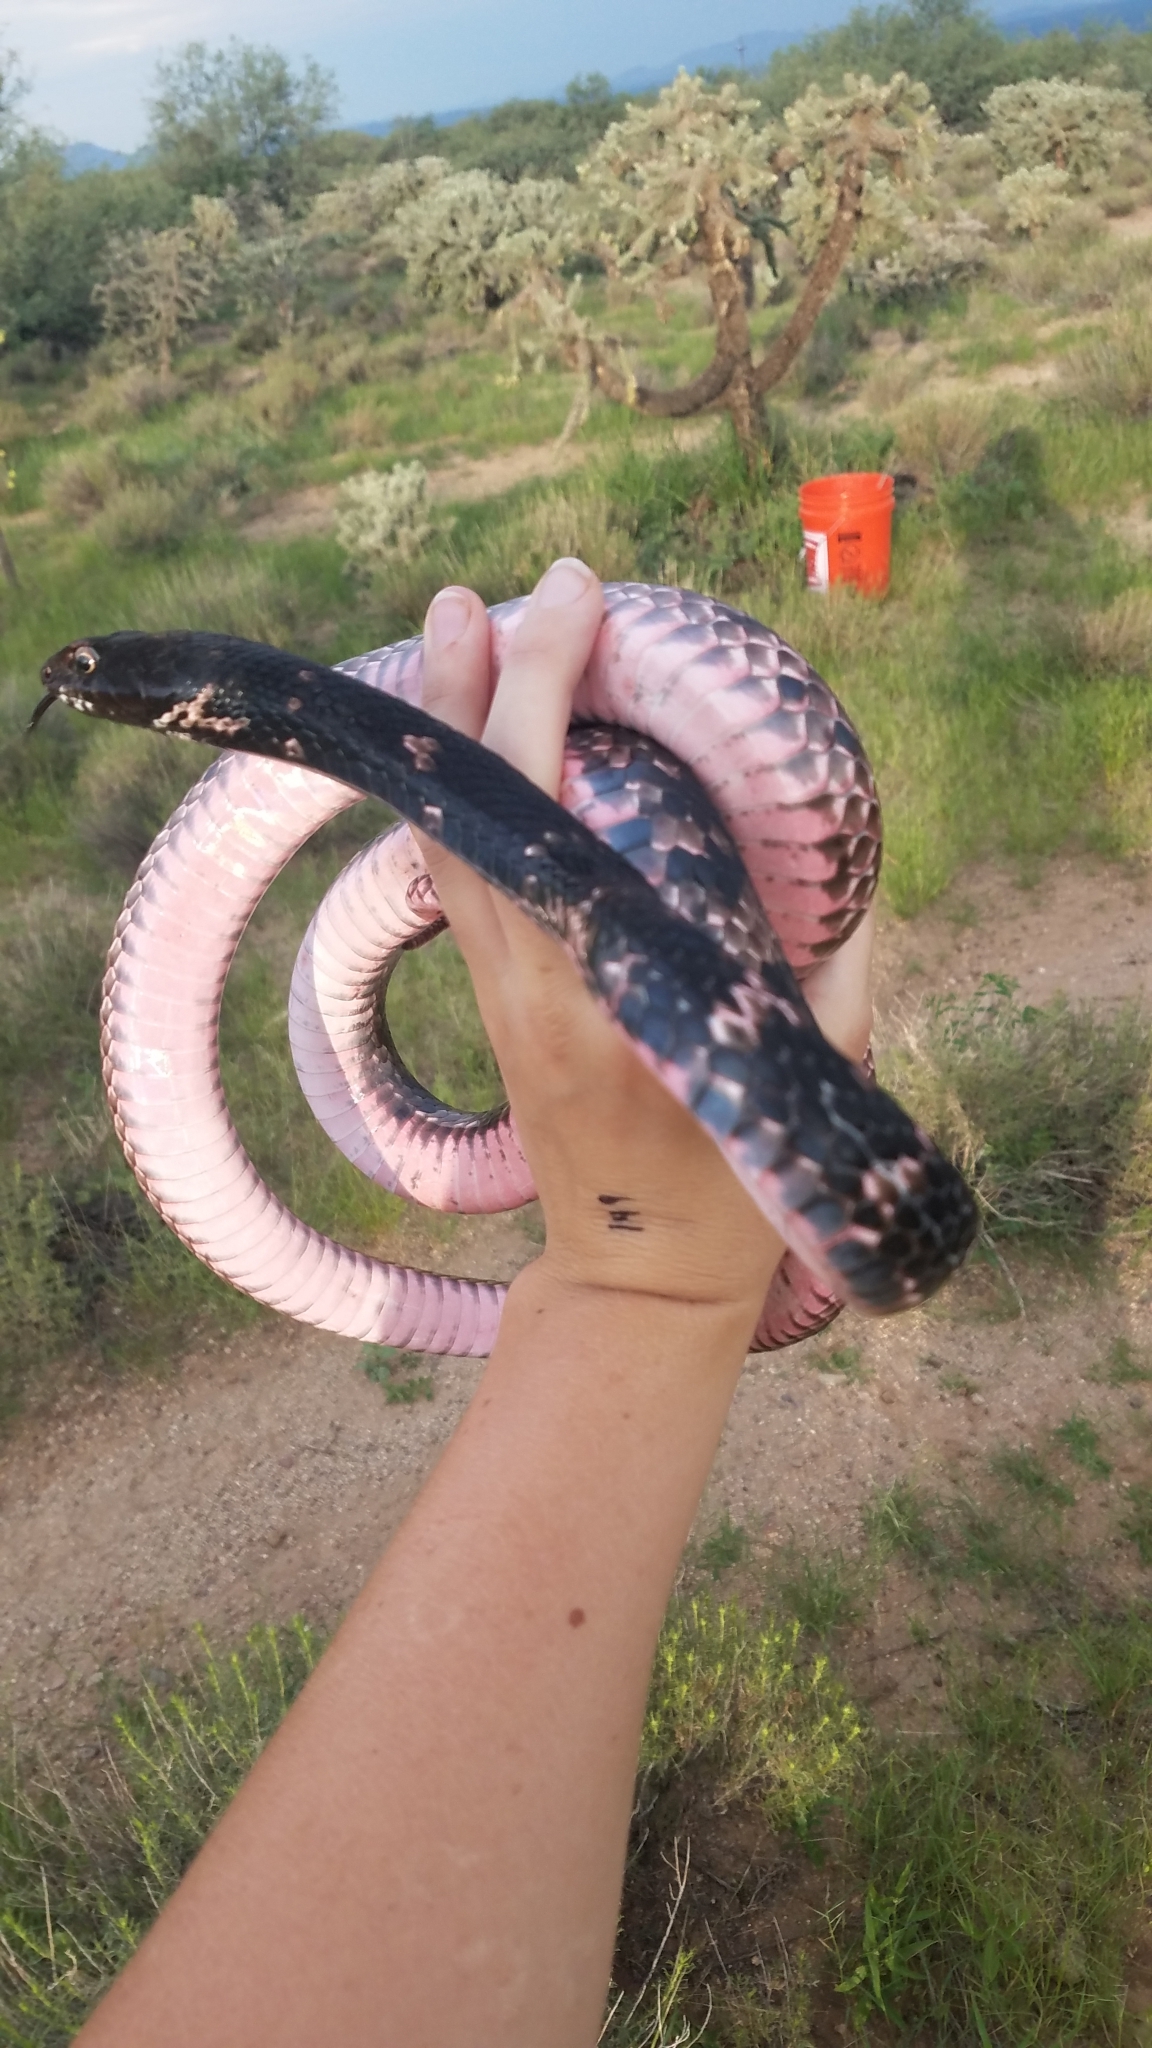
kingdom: Animalia
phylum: Chordata
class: Squamata
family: Colubridae
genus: Masticophis
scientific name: Masticophis flagellum
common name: Coachwhip
